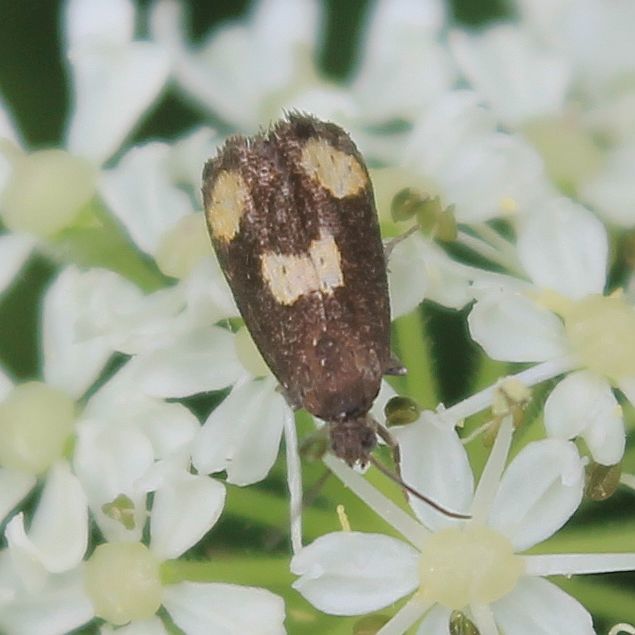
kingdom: Animalia
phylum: Arthropoda
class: Insecta
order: Lepidoptera
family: Tortricidae
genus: Pammene
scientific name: Pammene aurana
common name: Orange-spot piercer
